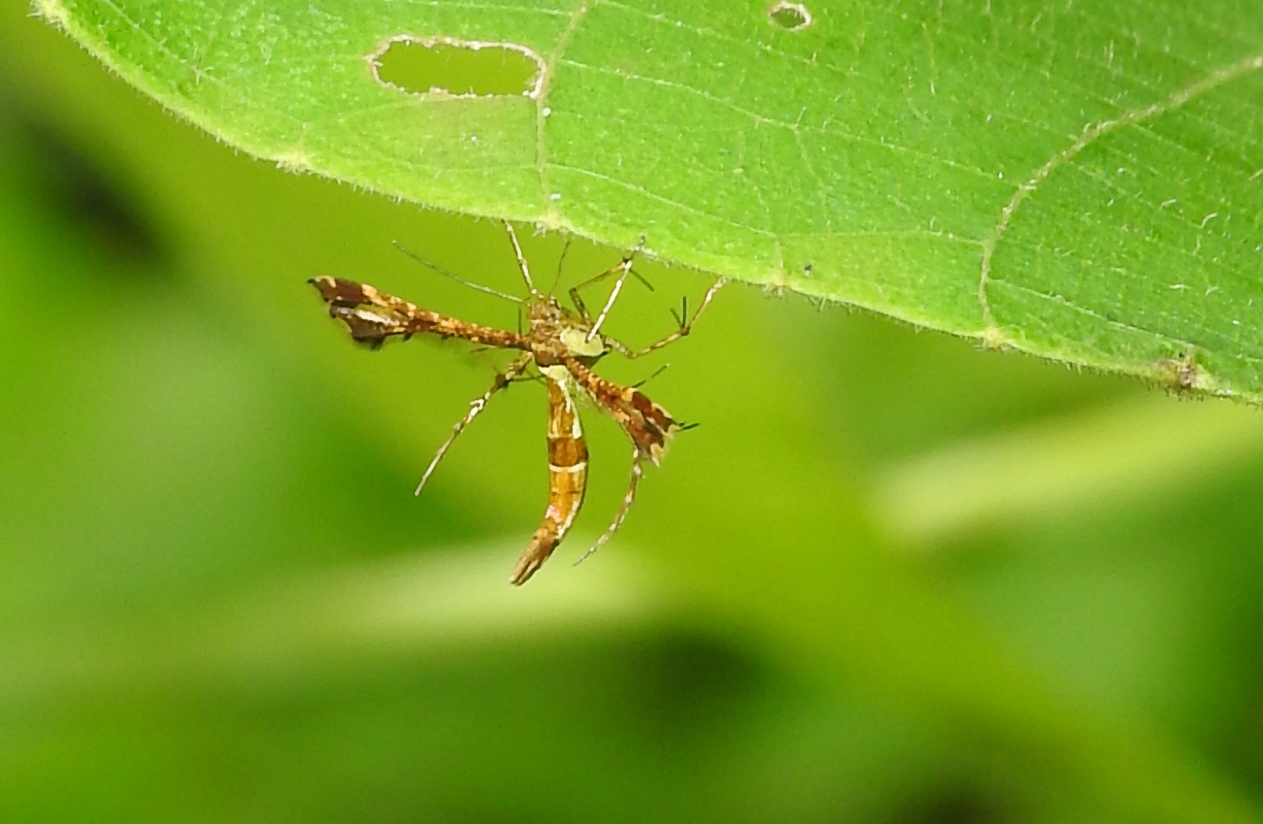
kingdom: Animalia
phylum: Arthropoda
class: Insecta
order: Lepidoptera
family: Pterophoridae
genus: Xyroptila
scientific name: Xyroptila oenophanes
